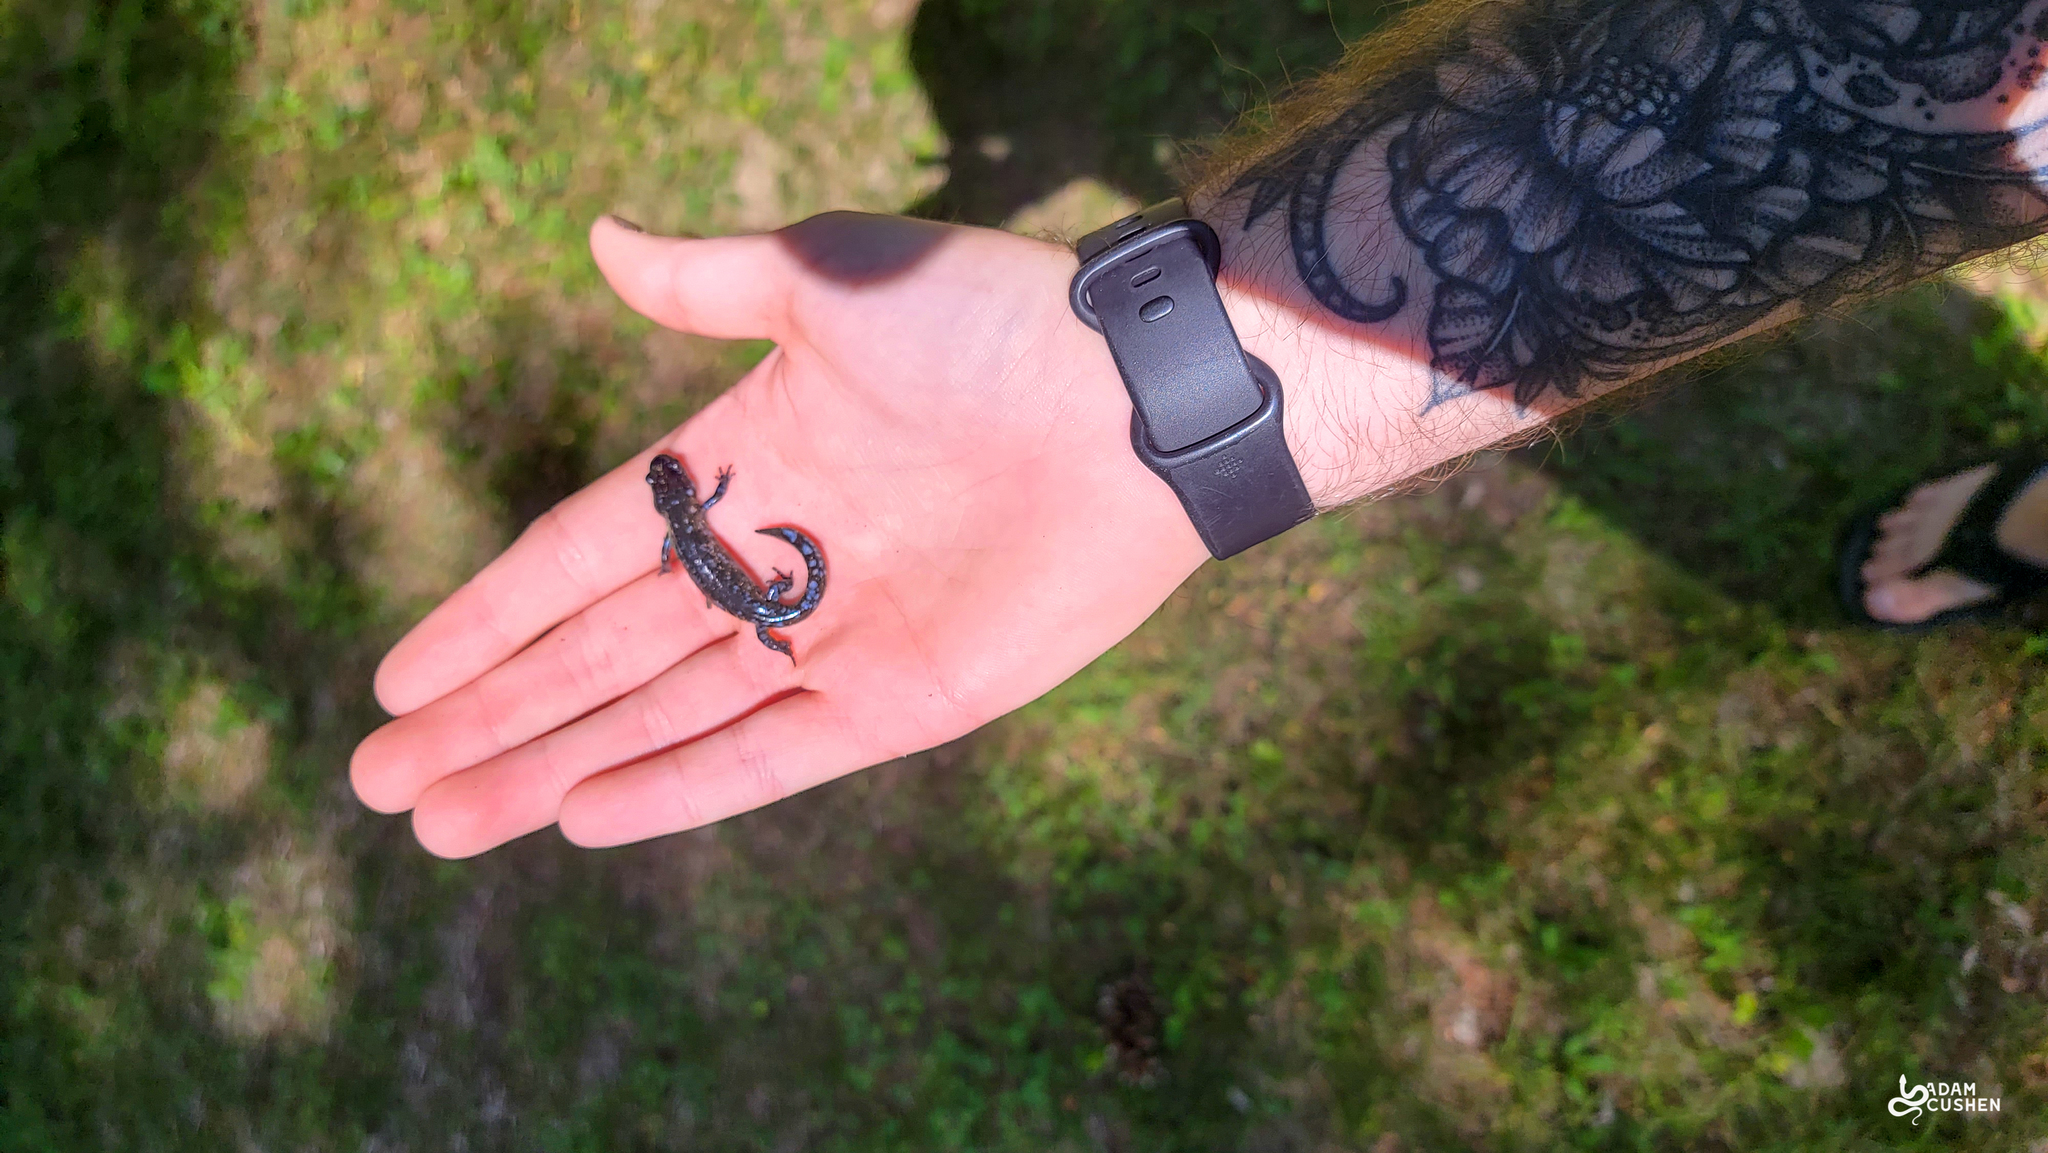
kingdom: Animalia
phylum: Chordata
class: Amphibia
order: Caudata
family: Ambystomatidae
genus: Ambystoma
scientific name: Ambystoma laterale
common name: Blue-spotted salamander
